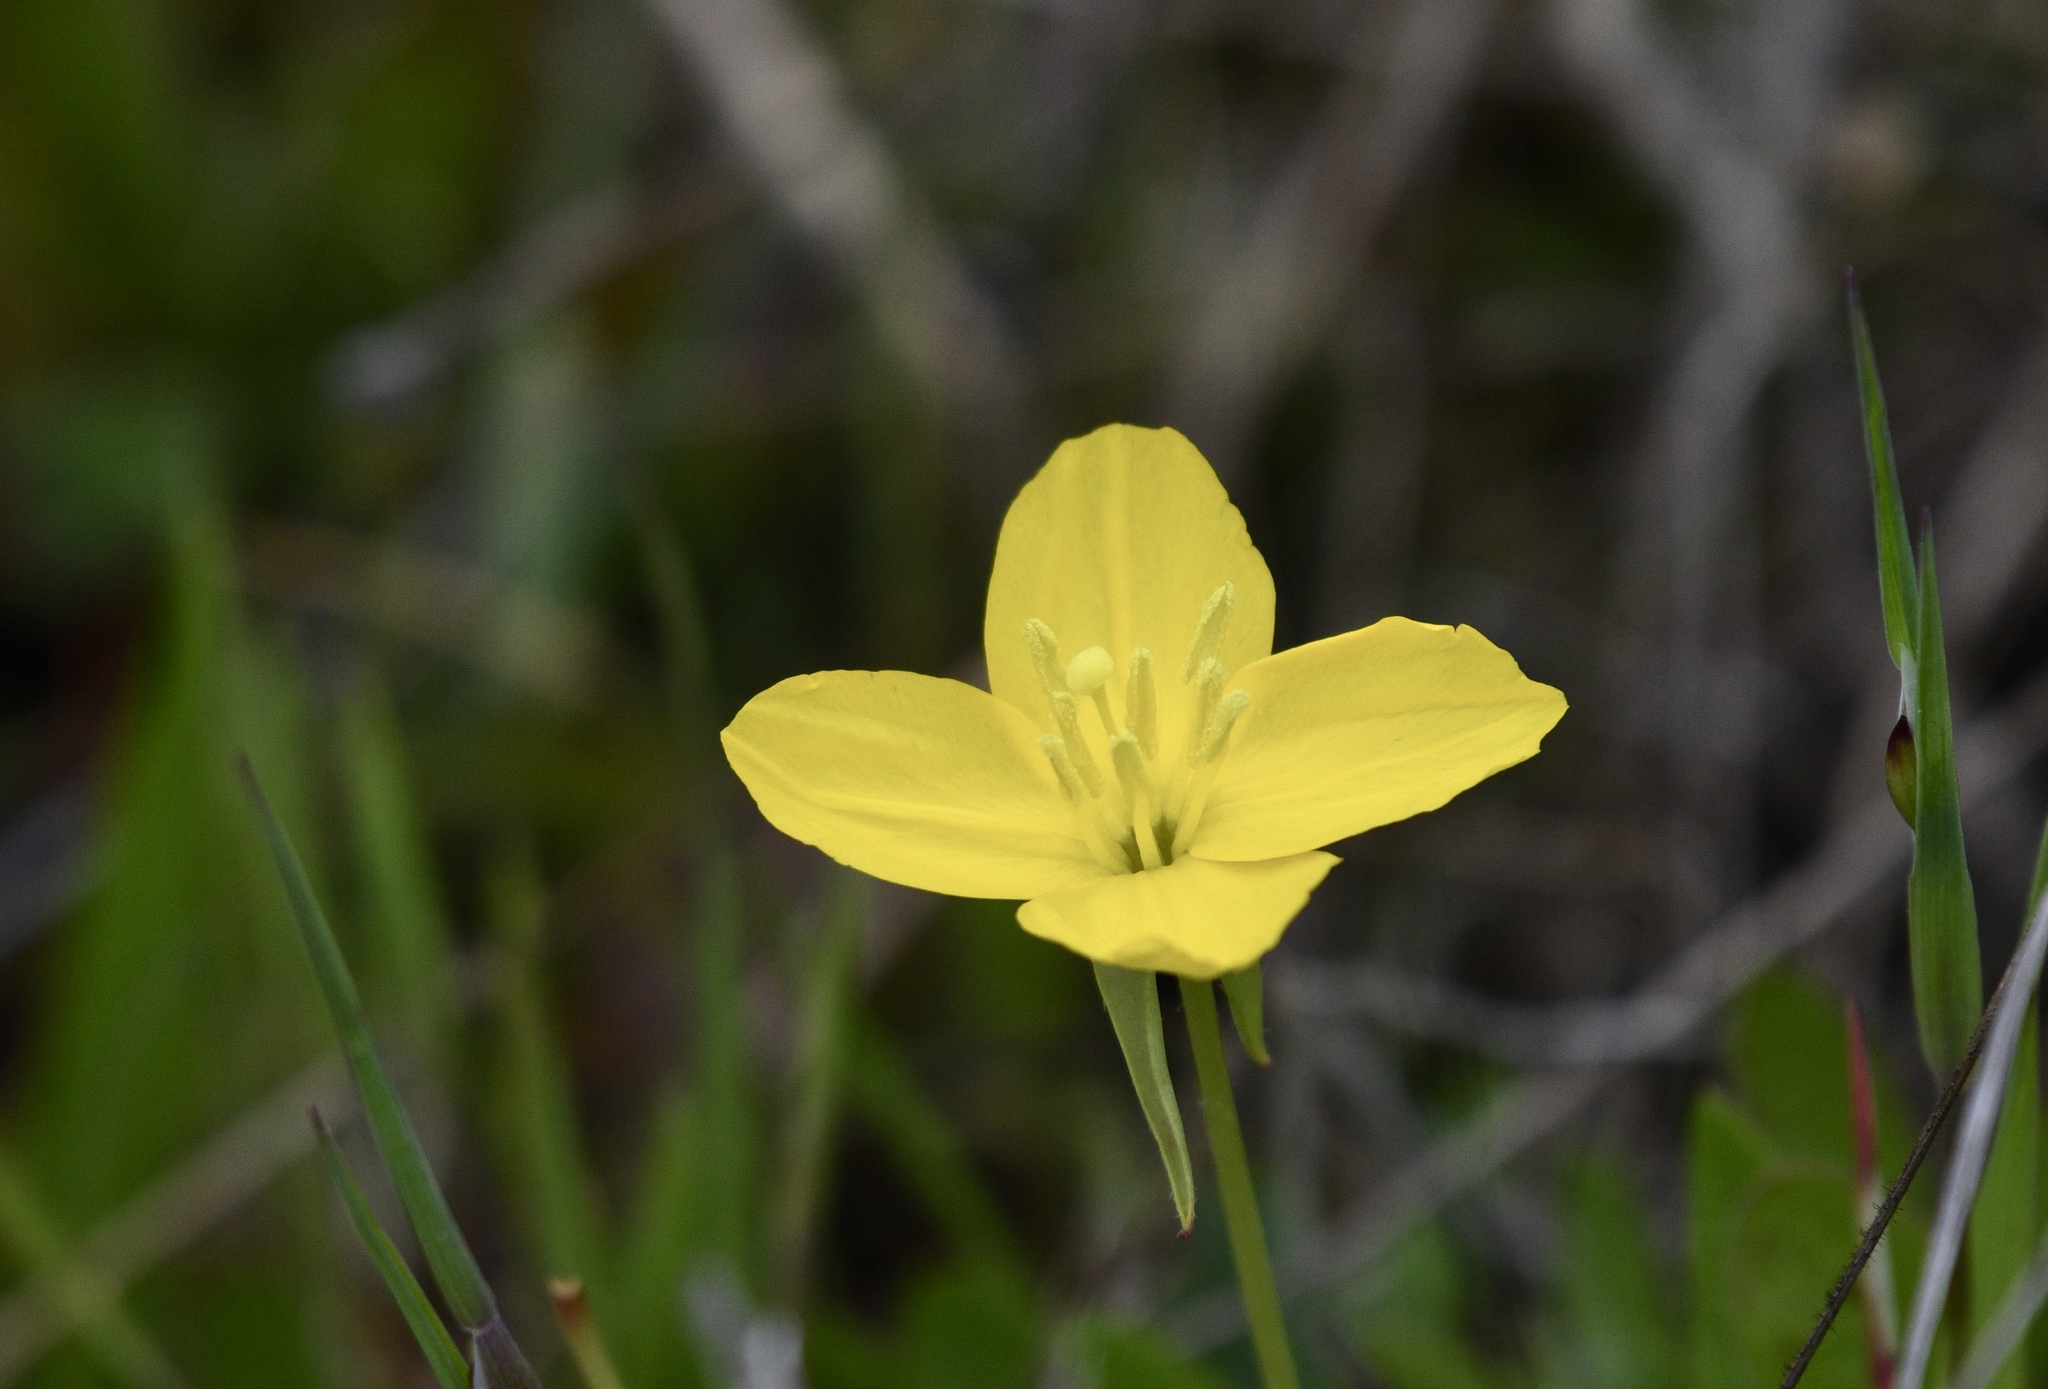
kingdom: Plantae
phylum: Tracheophyta
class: Magnoliopsida
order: Myrtales
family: Onagraceae
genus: Taraxia
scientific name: Taraxia ovata
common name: Goldeneggs
